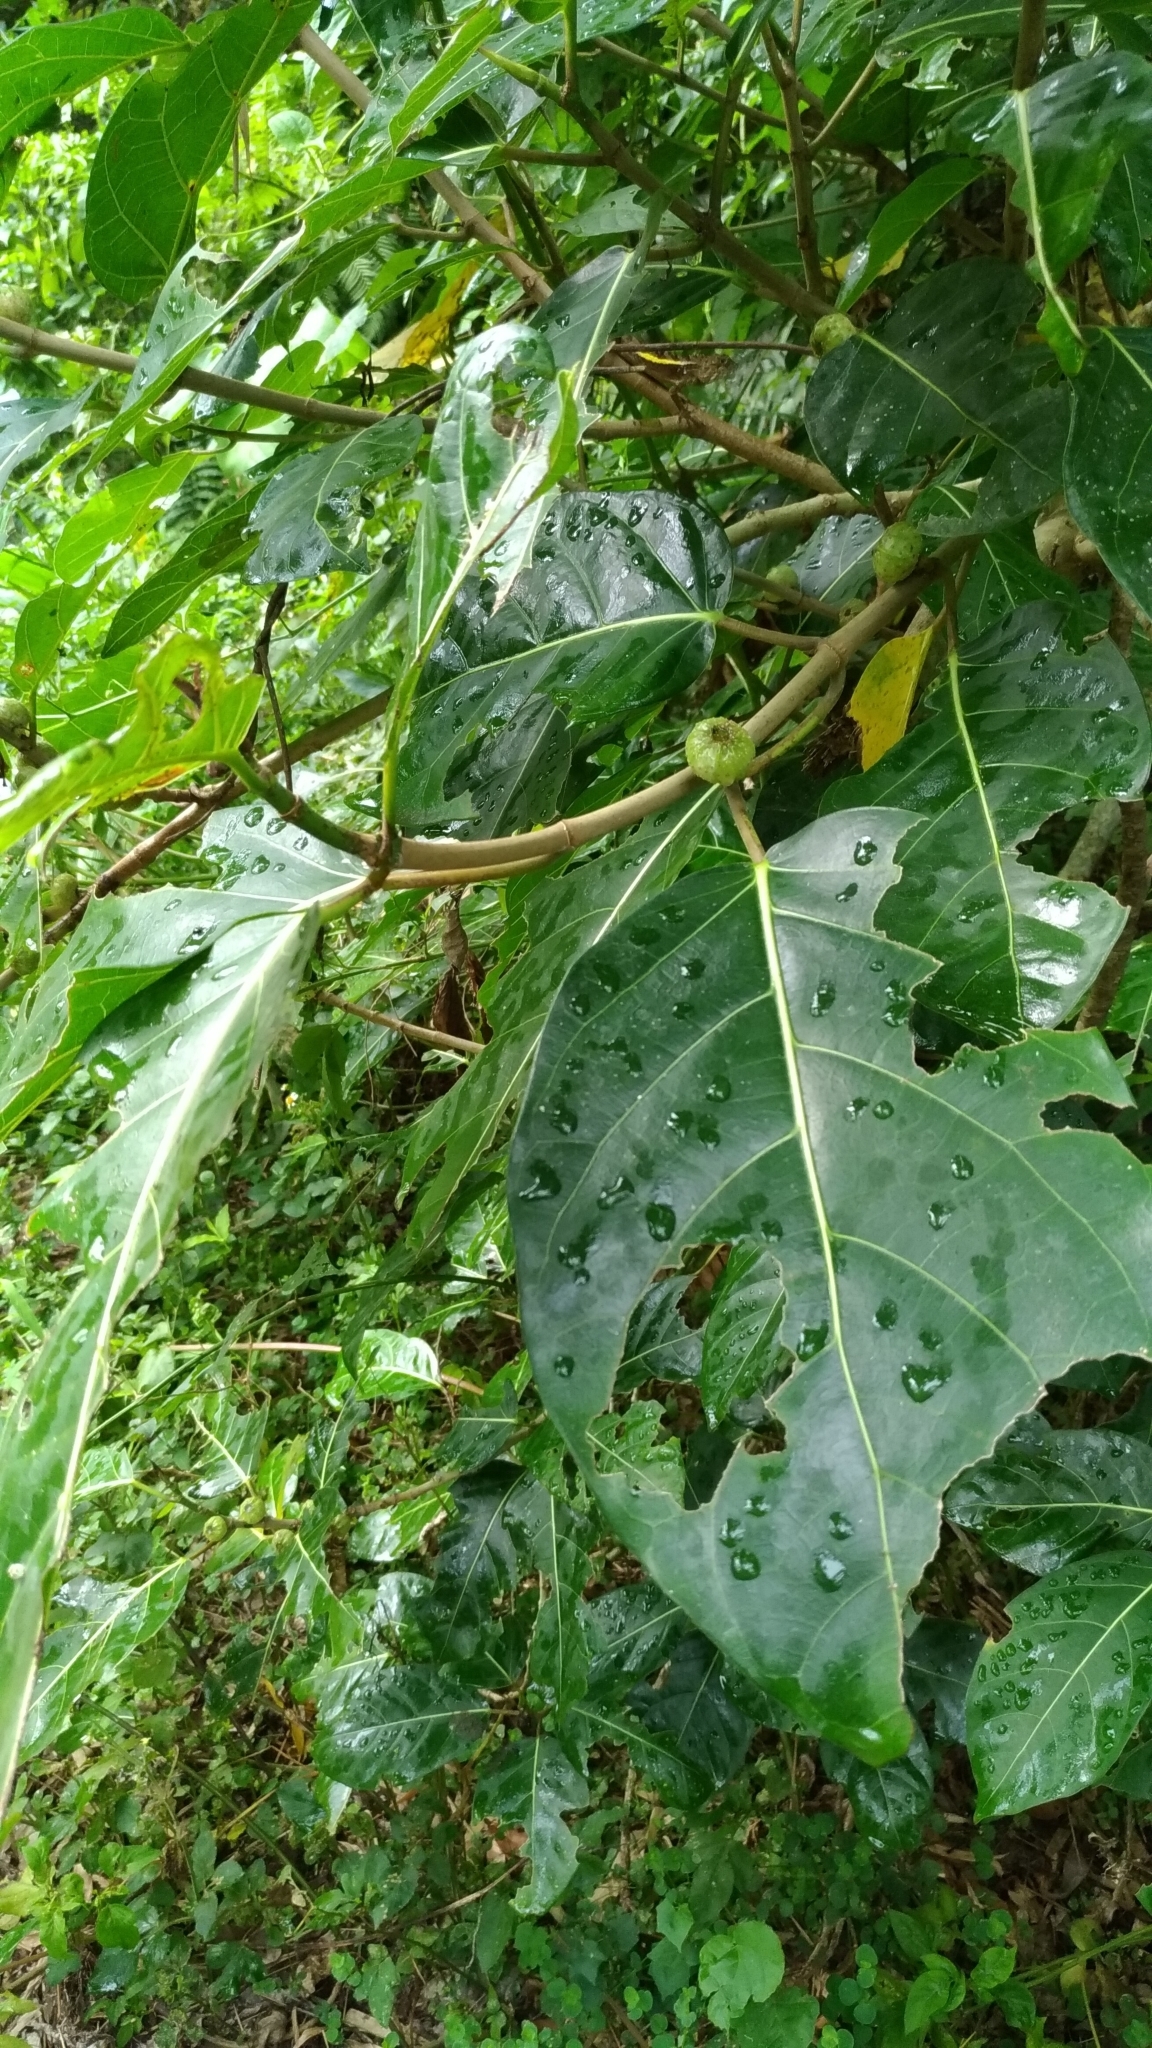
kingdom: Plantae
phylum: Tracheophyta
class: Magnoliopsida
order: Rosales
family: Moraceae
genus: Ficus
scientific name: Ficus septica
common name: Septic fig
